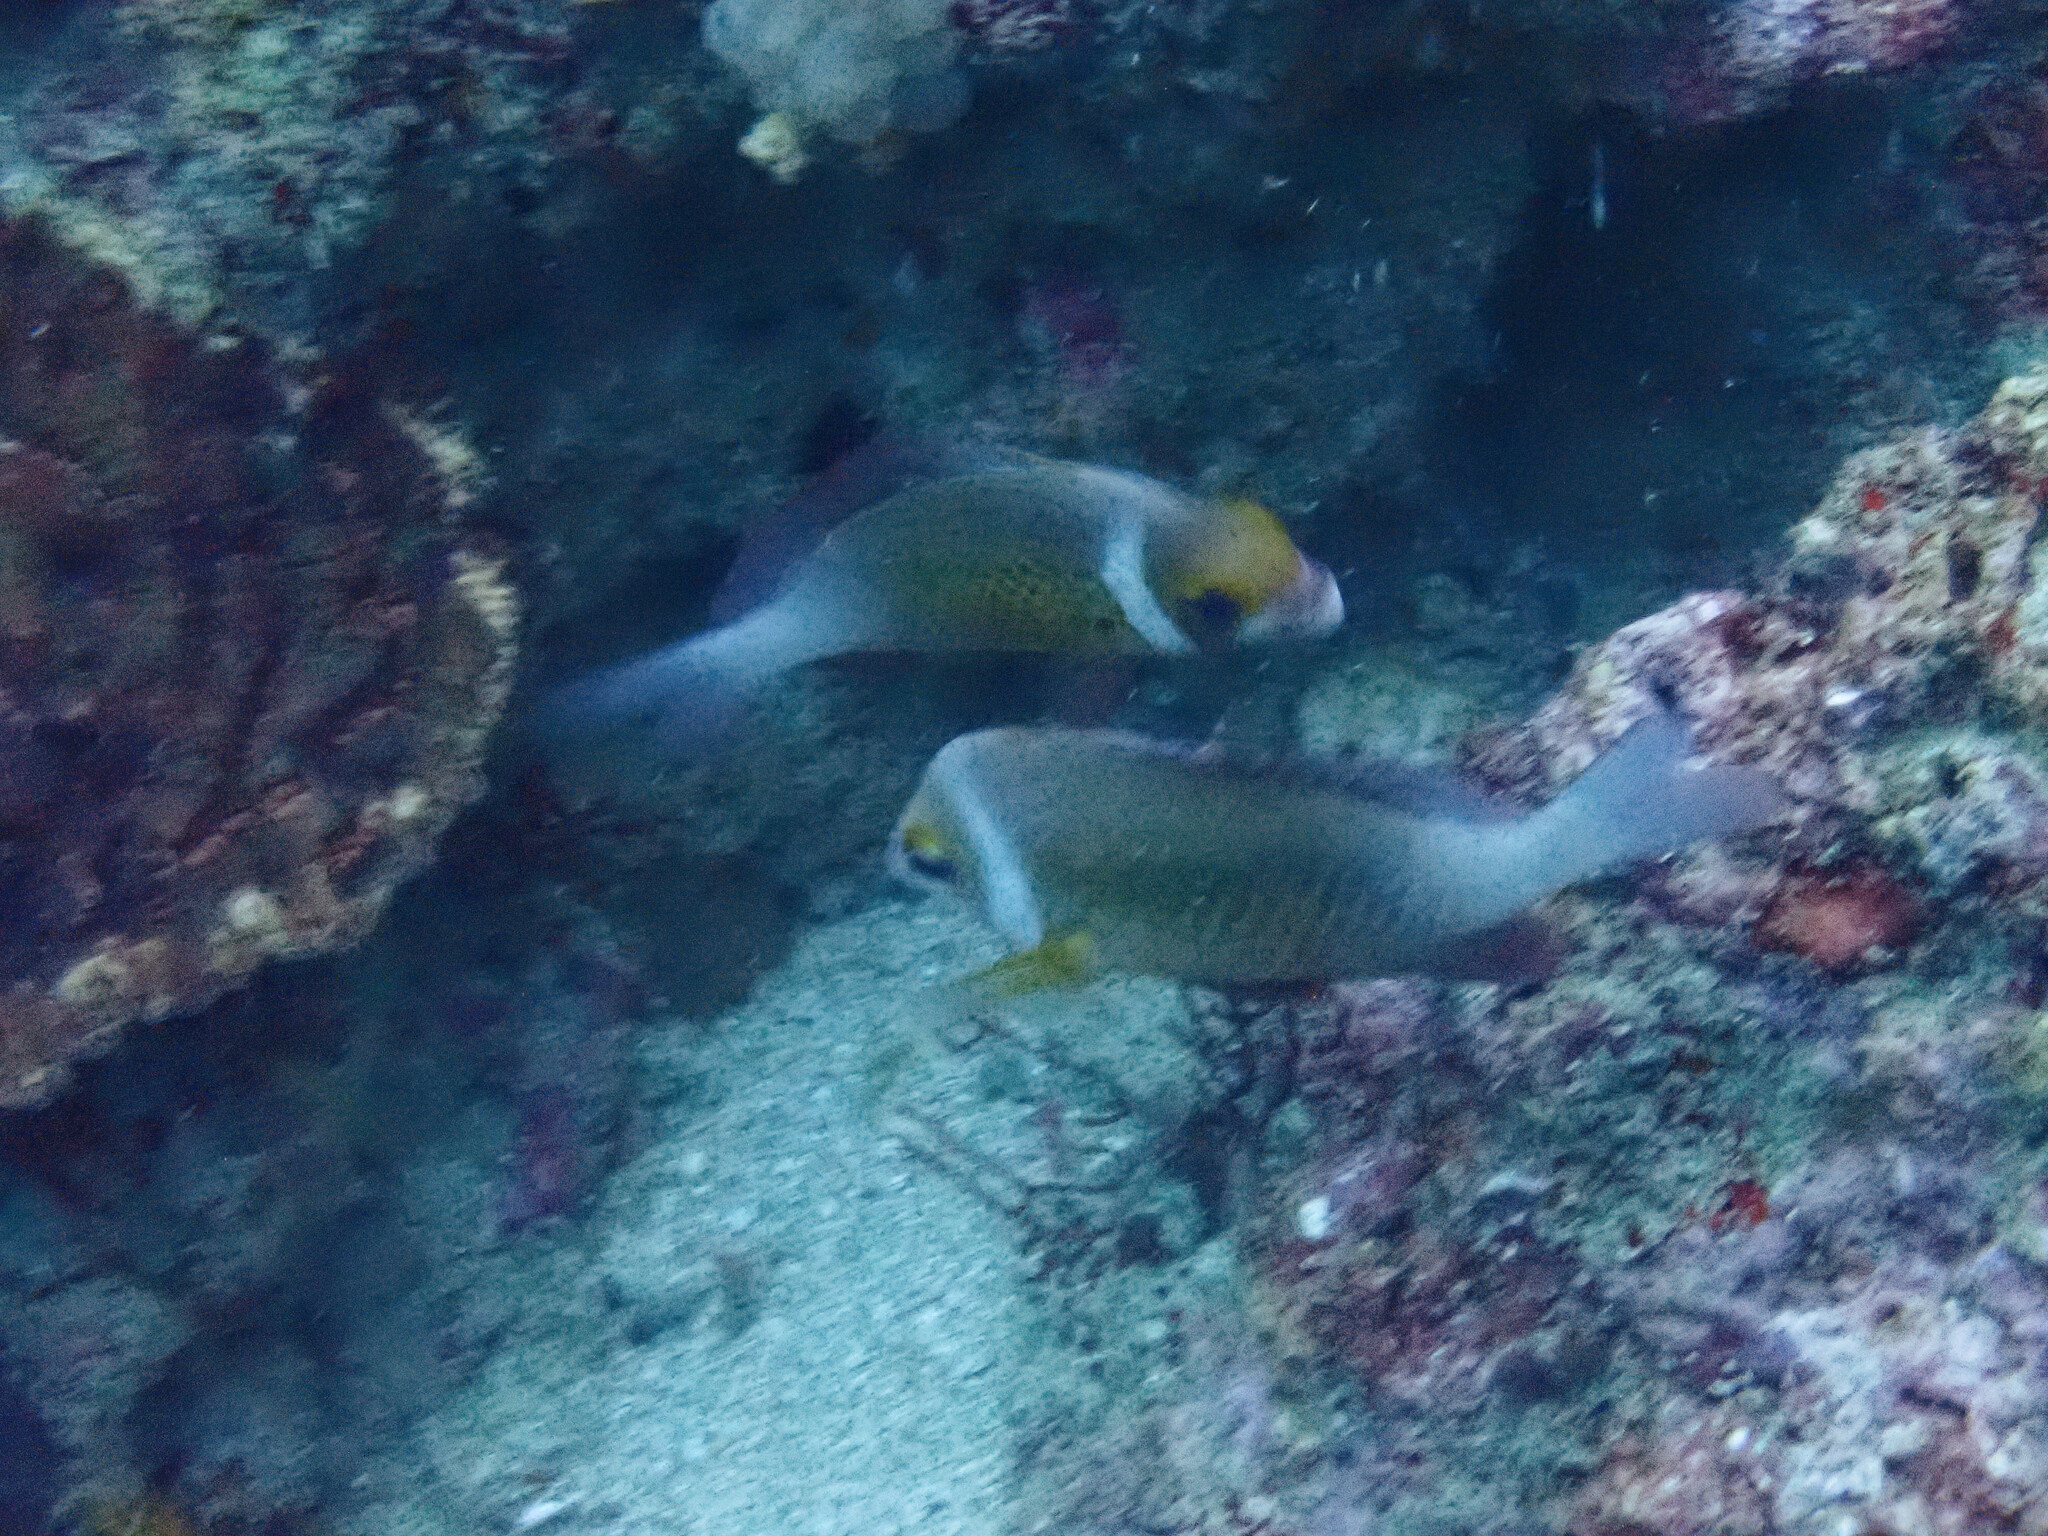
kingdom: Animalia
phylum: Chordata
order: Perciformes
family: Nemipteridae
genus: Scolopsis
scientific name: Scolopsis vosmeri
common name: Whitecheek monocle bream
